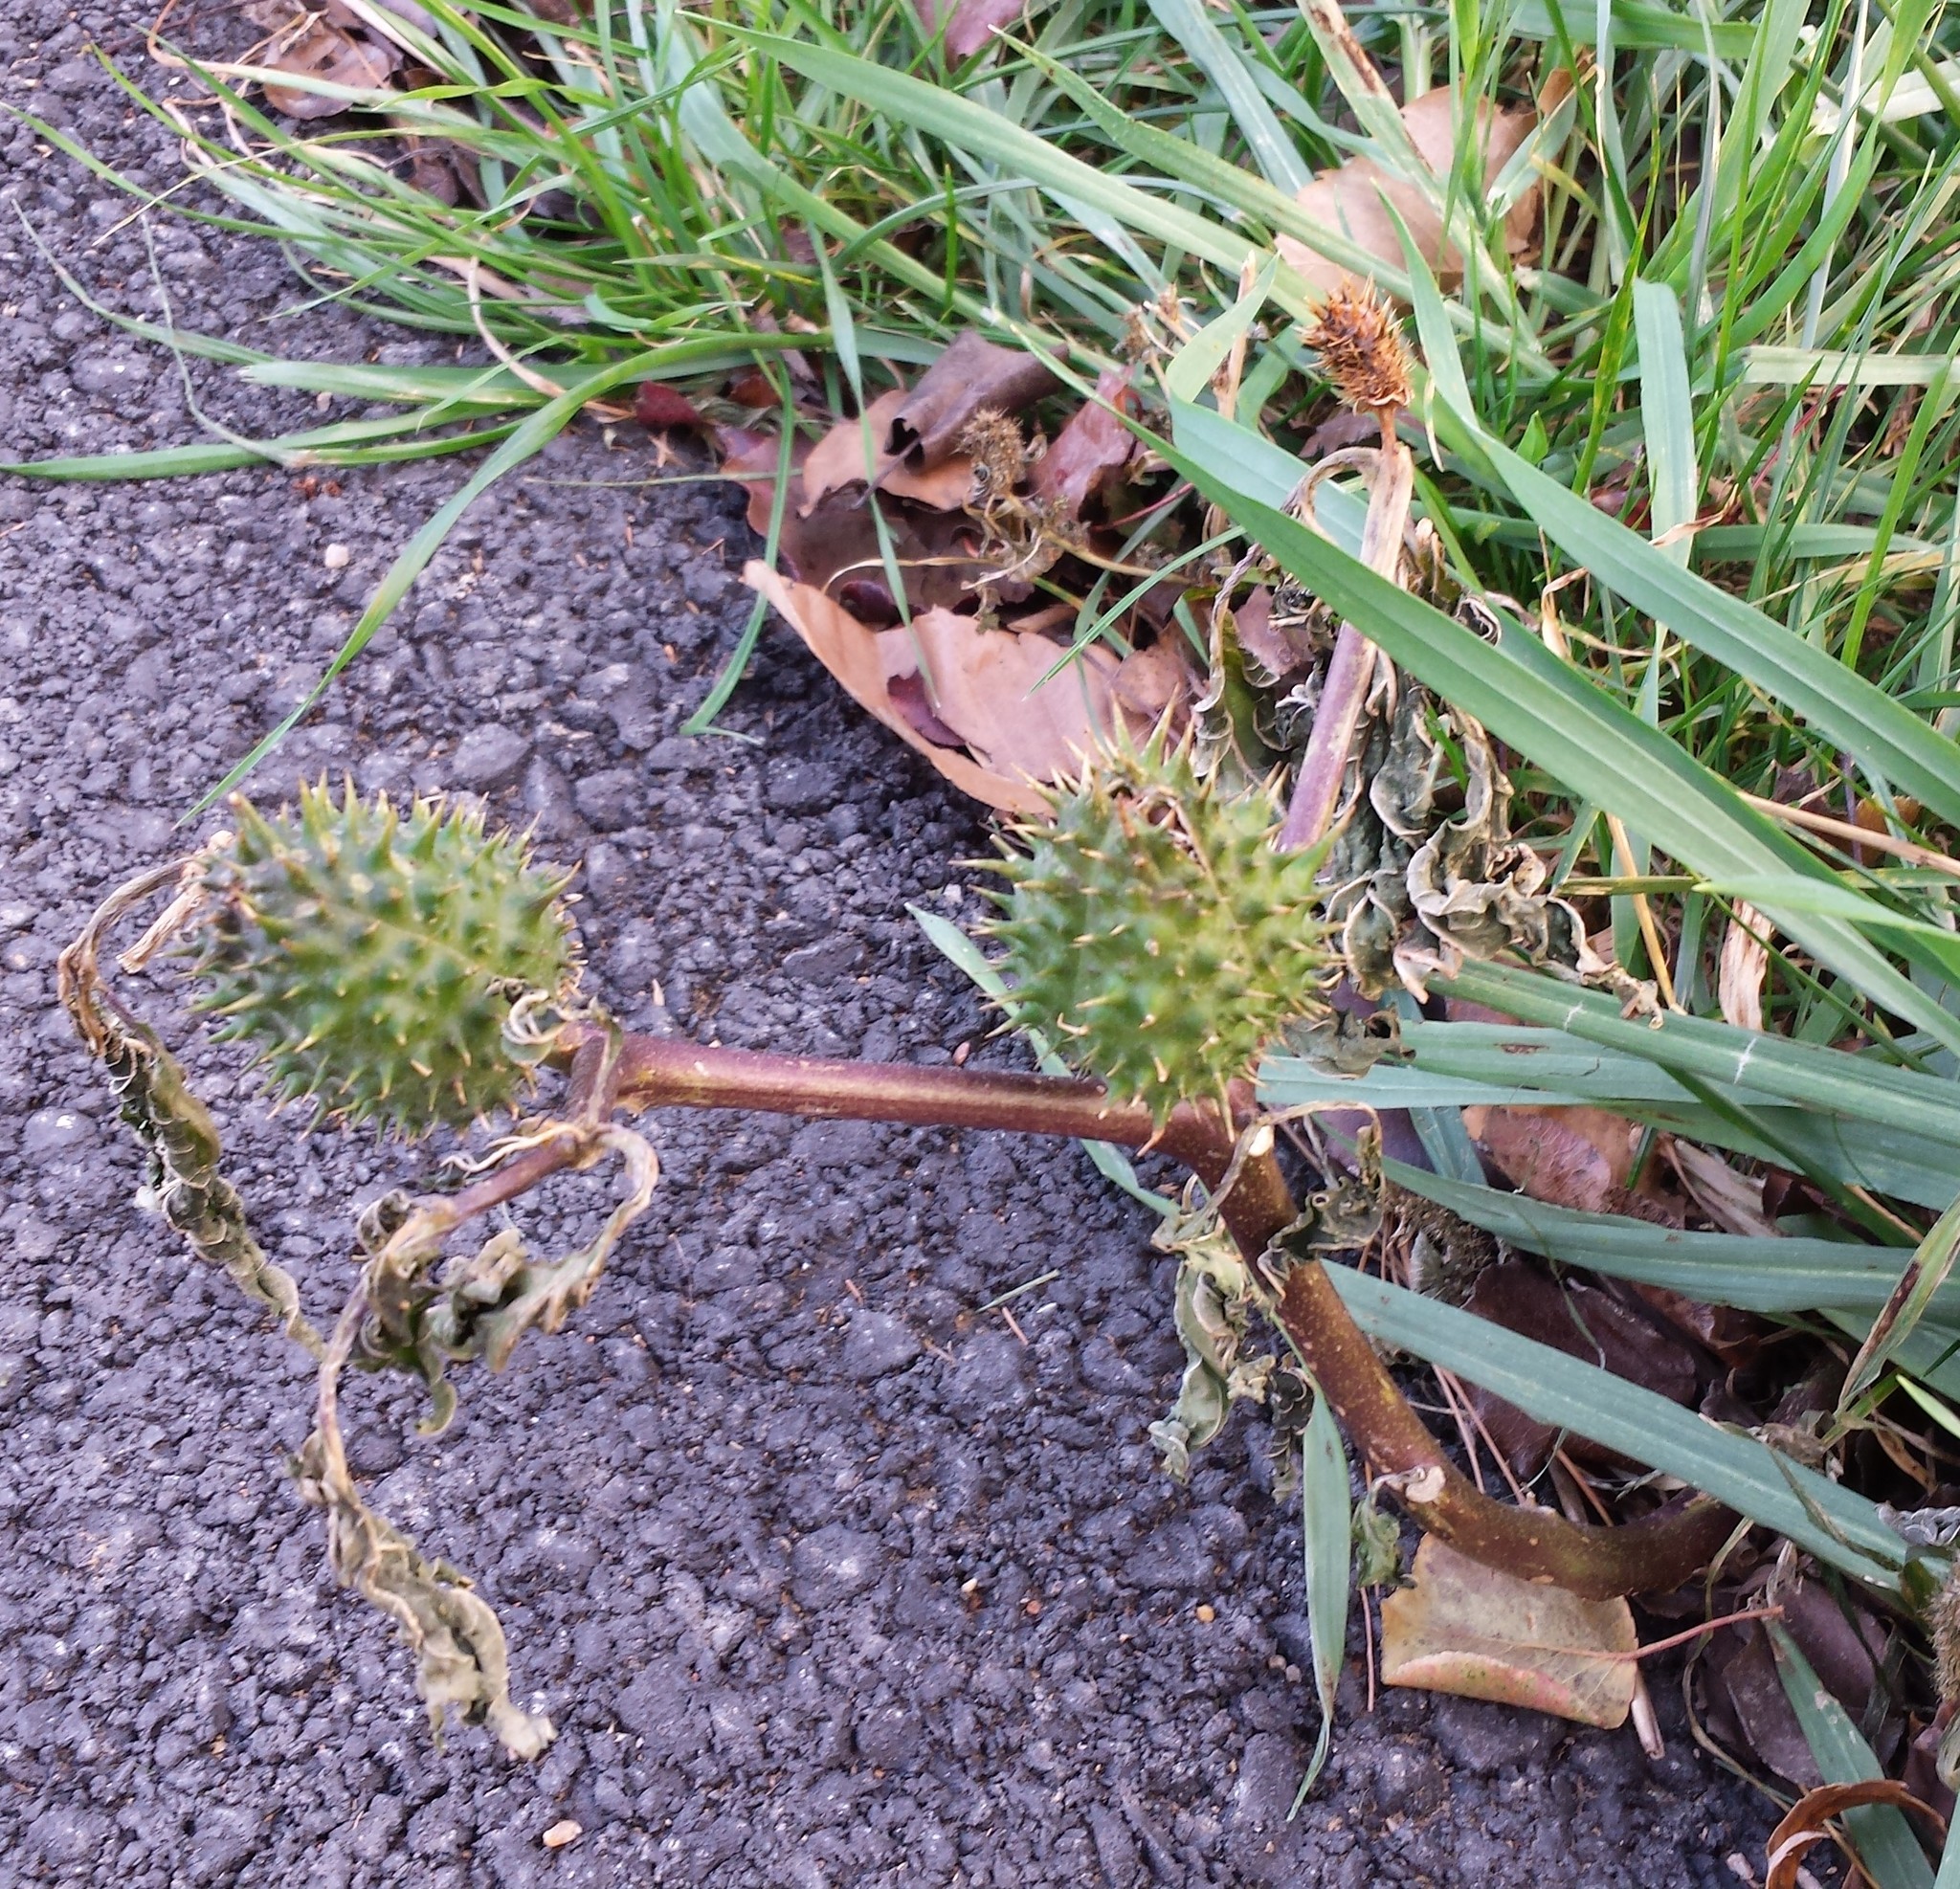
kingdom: Plantae
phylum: Tracheophyta
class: Magnoliopsida
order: Solanales
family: Solanaceae
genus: Datura
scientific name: Datura stramonium
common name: Thorn-apple
